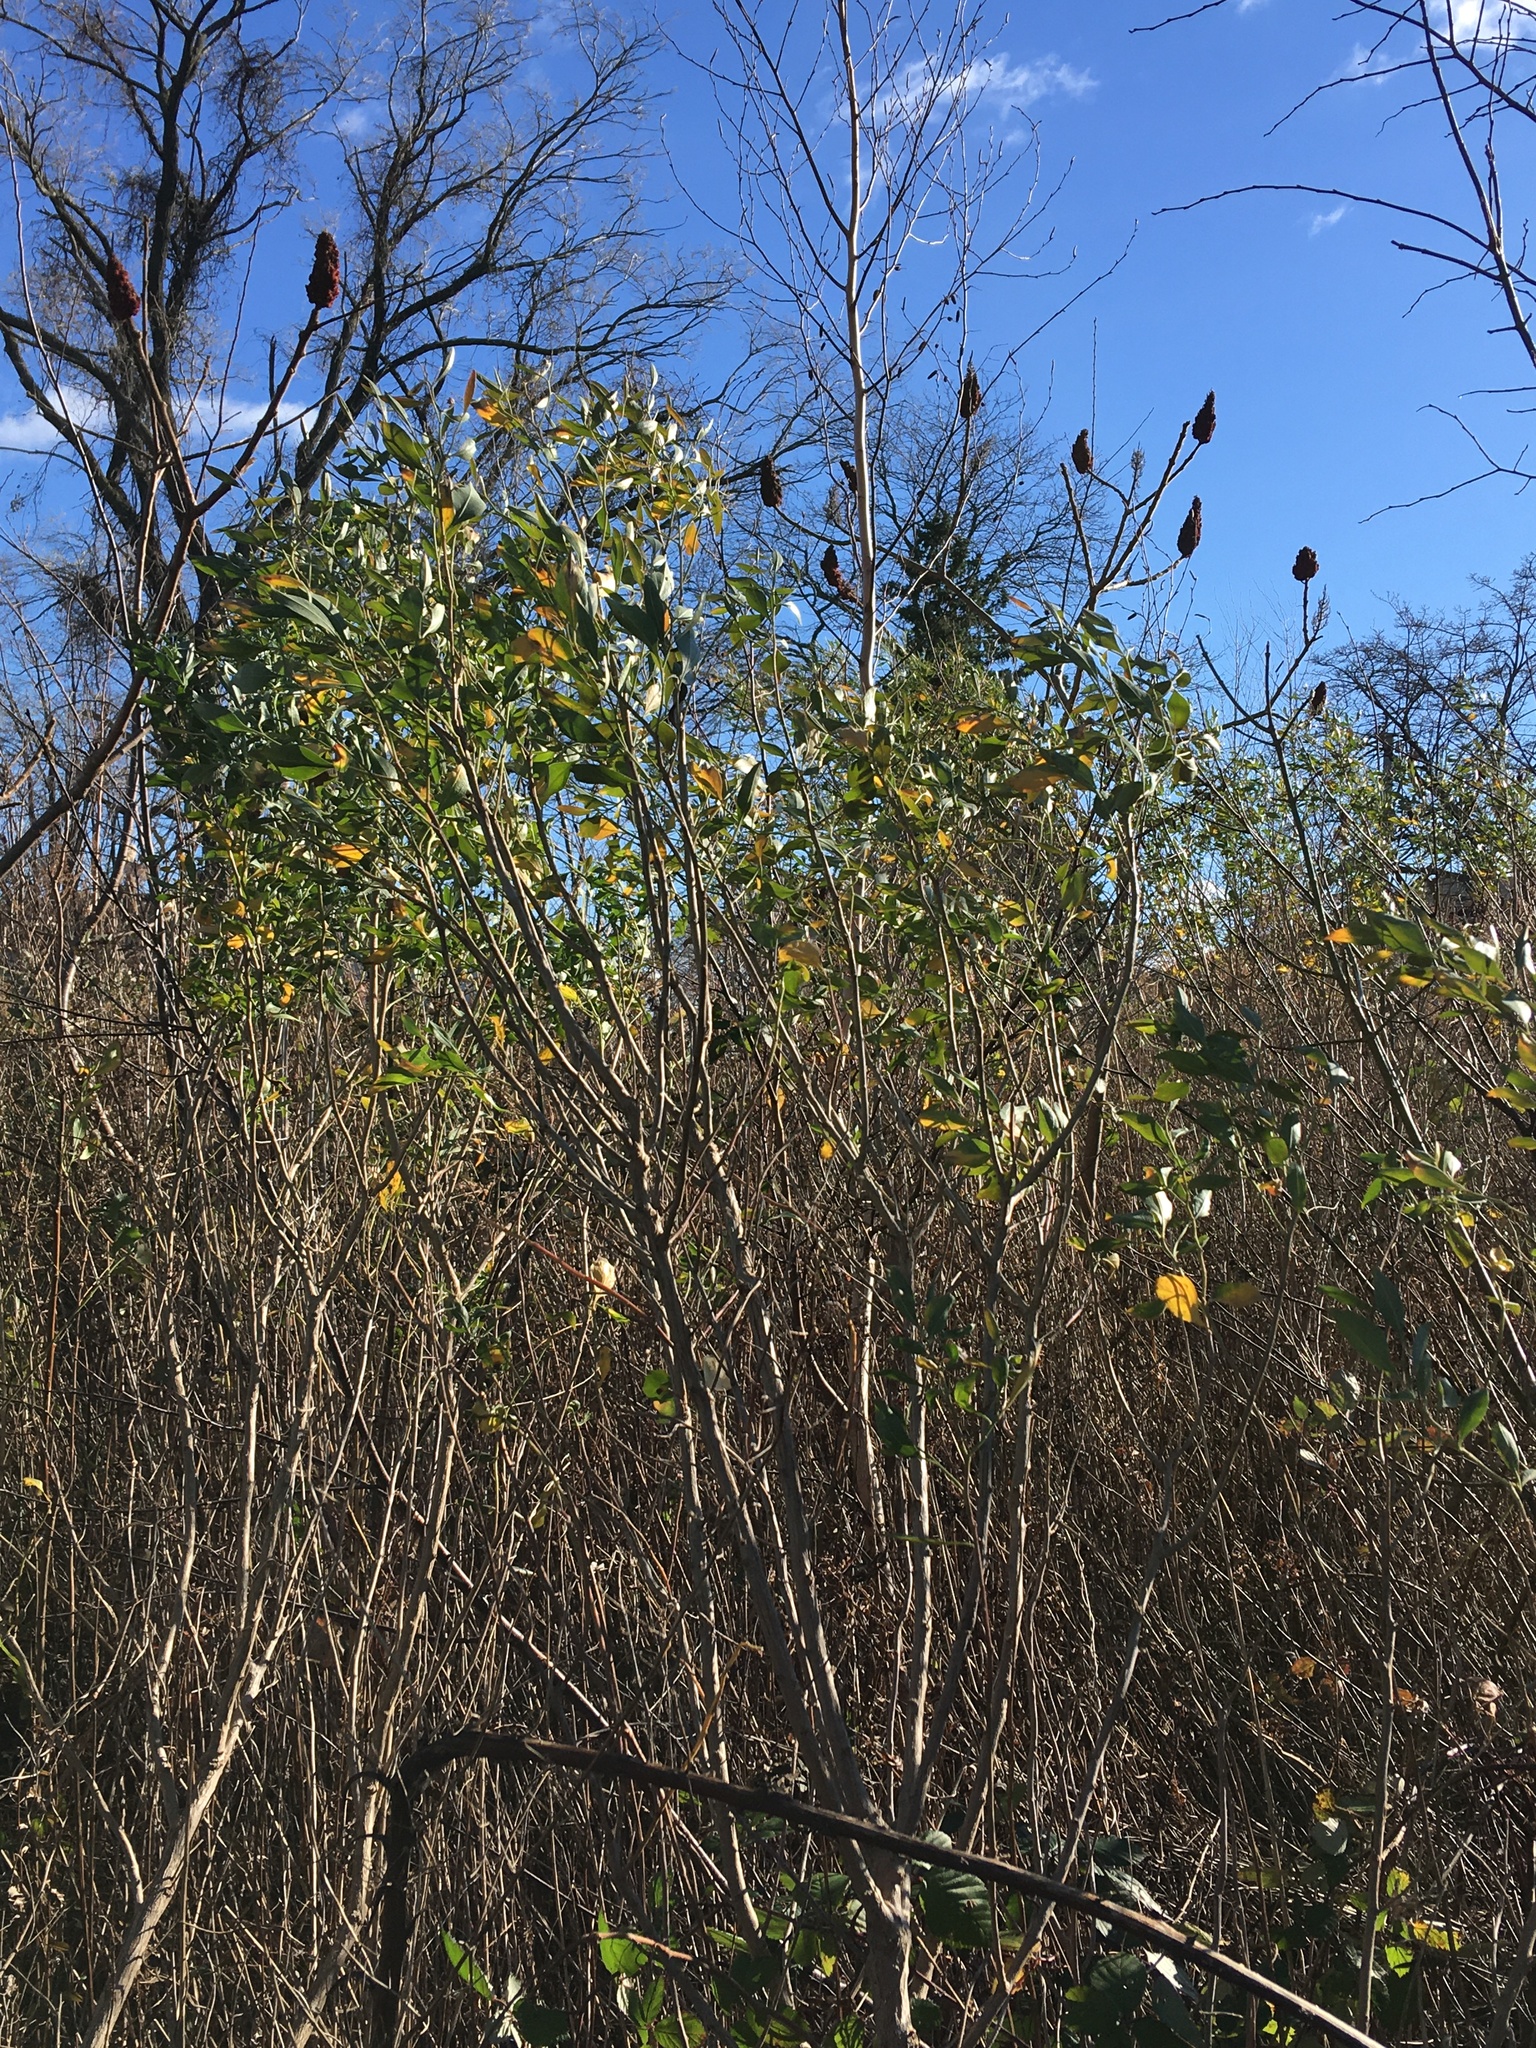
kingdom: Plantae
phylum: Tracheophyta
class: Magnoliopsida
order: Asterales
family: Asteraceae
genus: Baccharis
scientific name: Baccharis halimifolia
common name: Eastern baccharis
